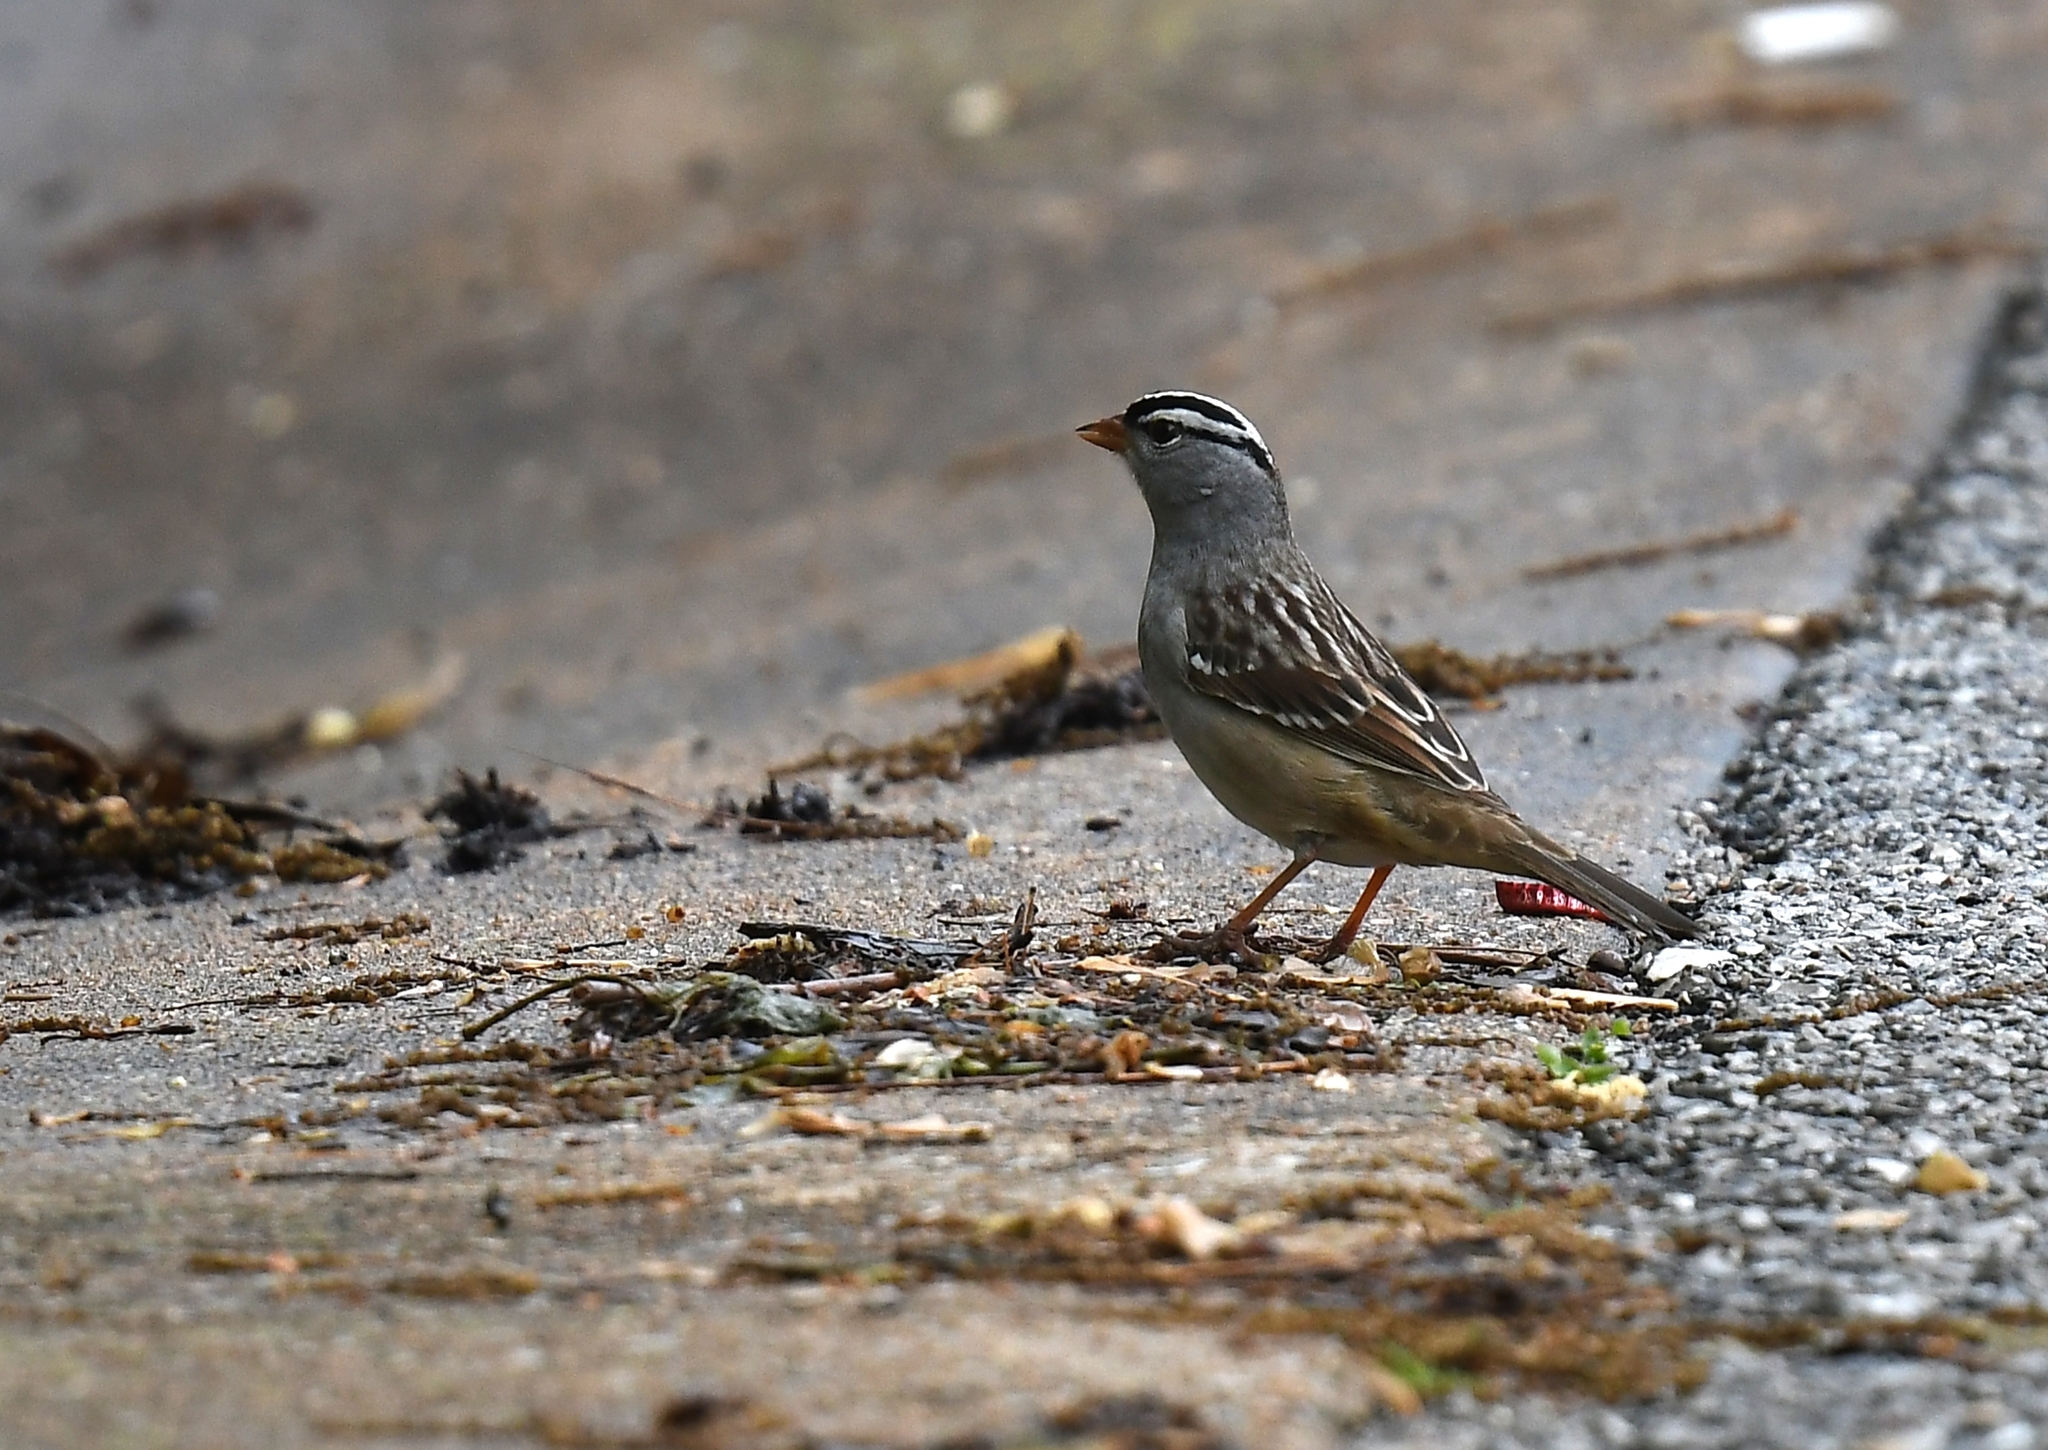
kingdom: Animalia
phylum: Chordata
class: Aves
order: Passeriformes
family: Passerellidae
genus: Zonotrichia
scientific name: Zonotrichia leucophrys
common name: White-crowned sparrow
